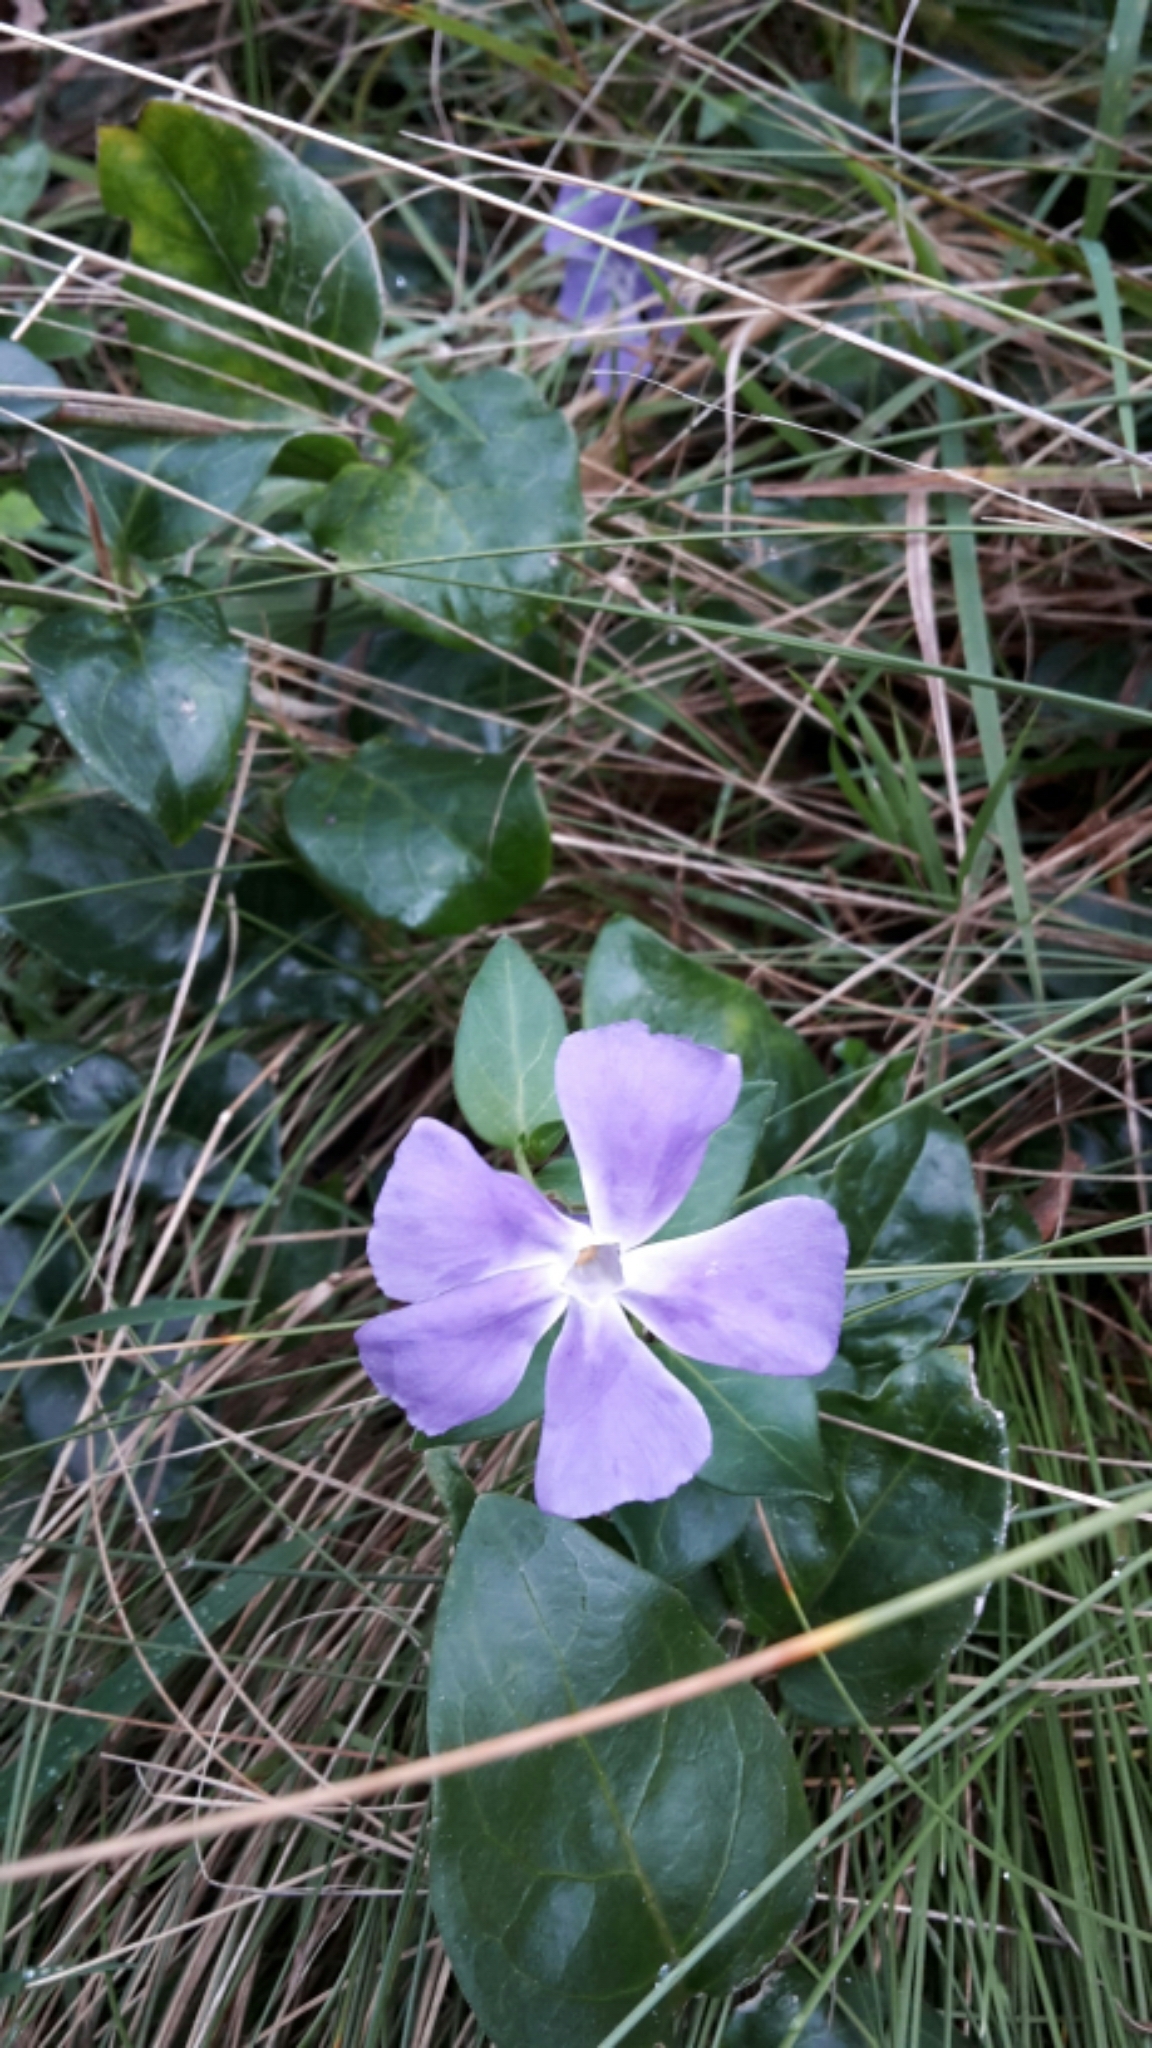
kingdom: Plantae
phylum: Tracheophyta
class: Magnoliopsida
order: Gentianales
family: Apocynaceae
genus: Vinca
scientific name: Vinca major
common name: Greater periwinkle
